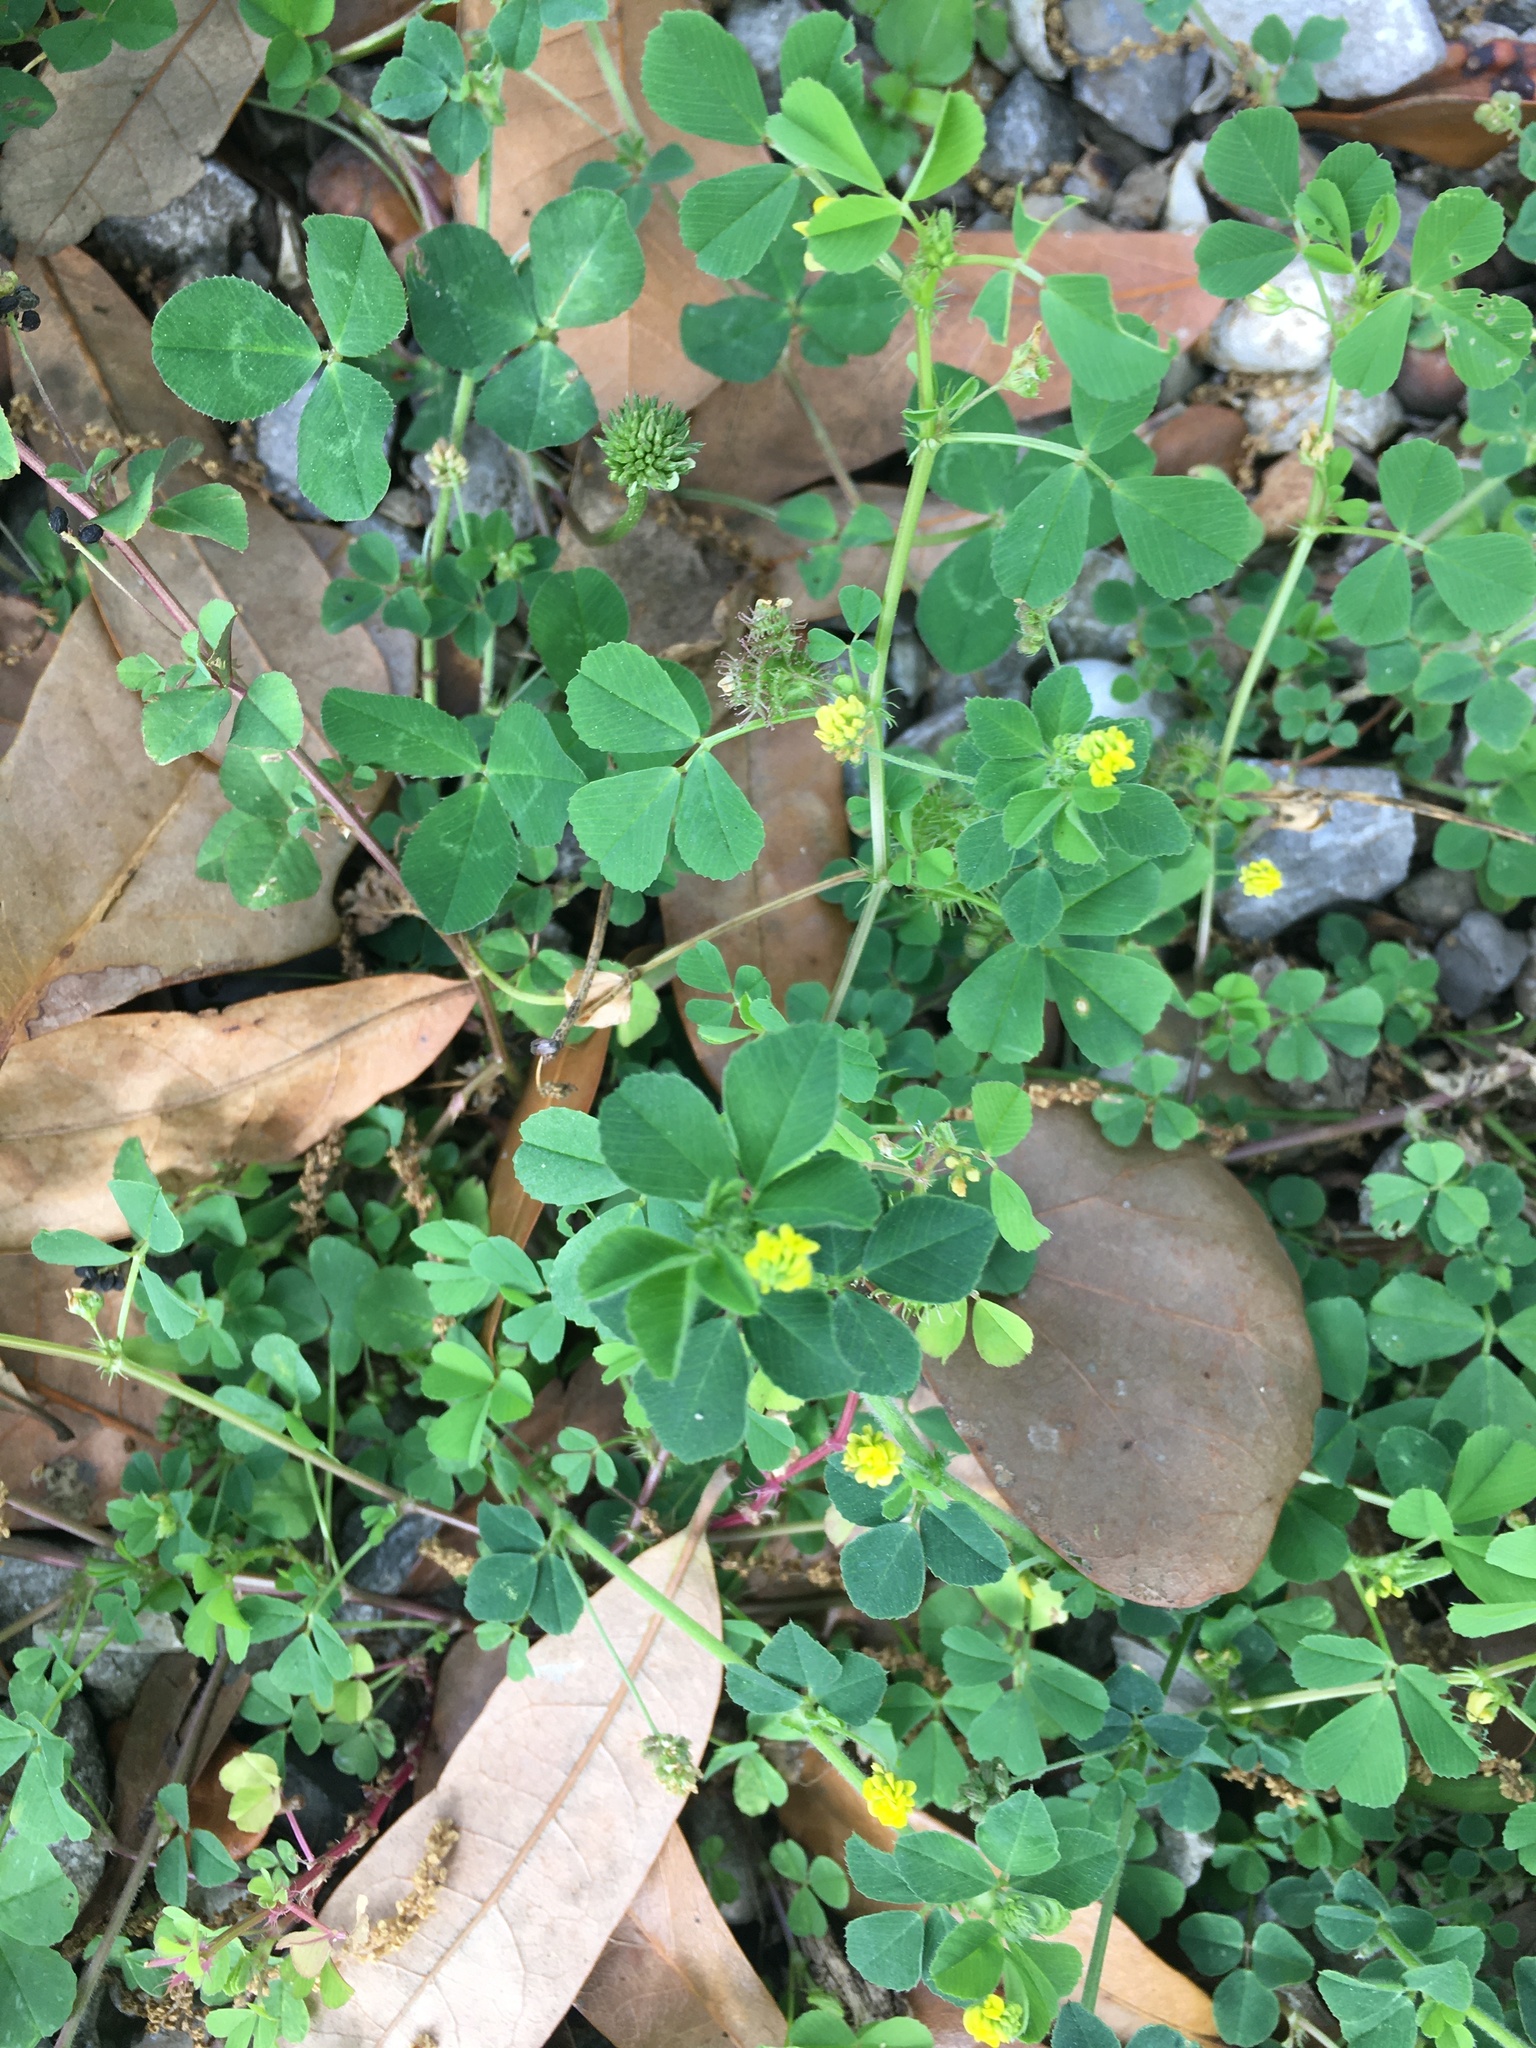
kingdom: Plantae
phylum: Tracheophyta
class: Magnoliopsida
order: Fabales
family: Fabaceae
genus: Medicago
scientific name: Medicago polymorpha
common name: Burclover
